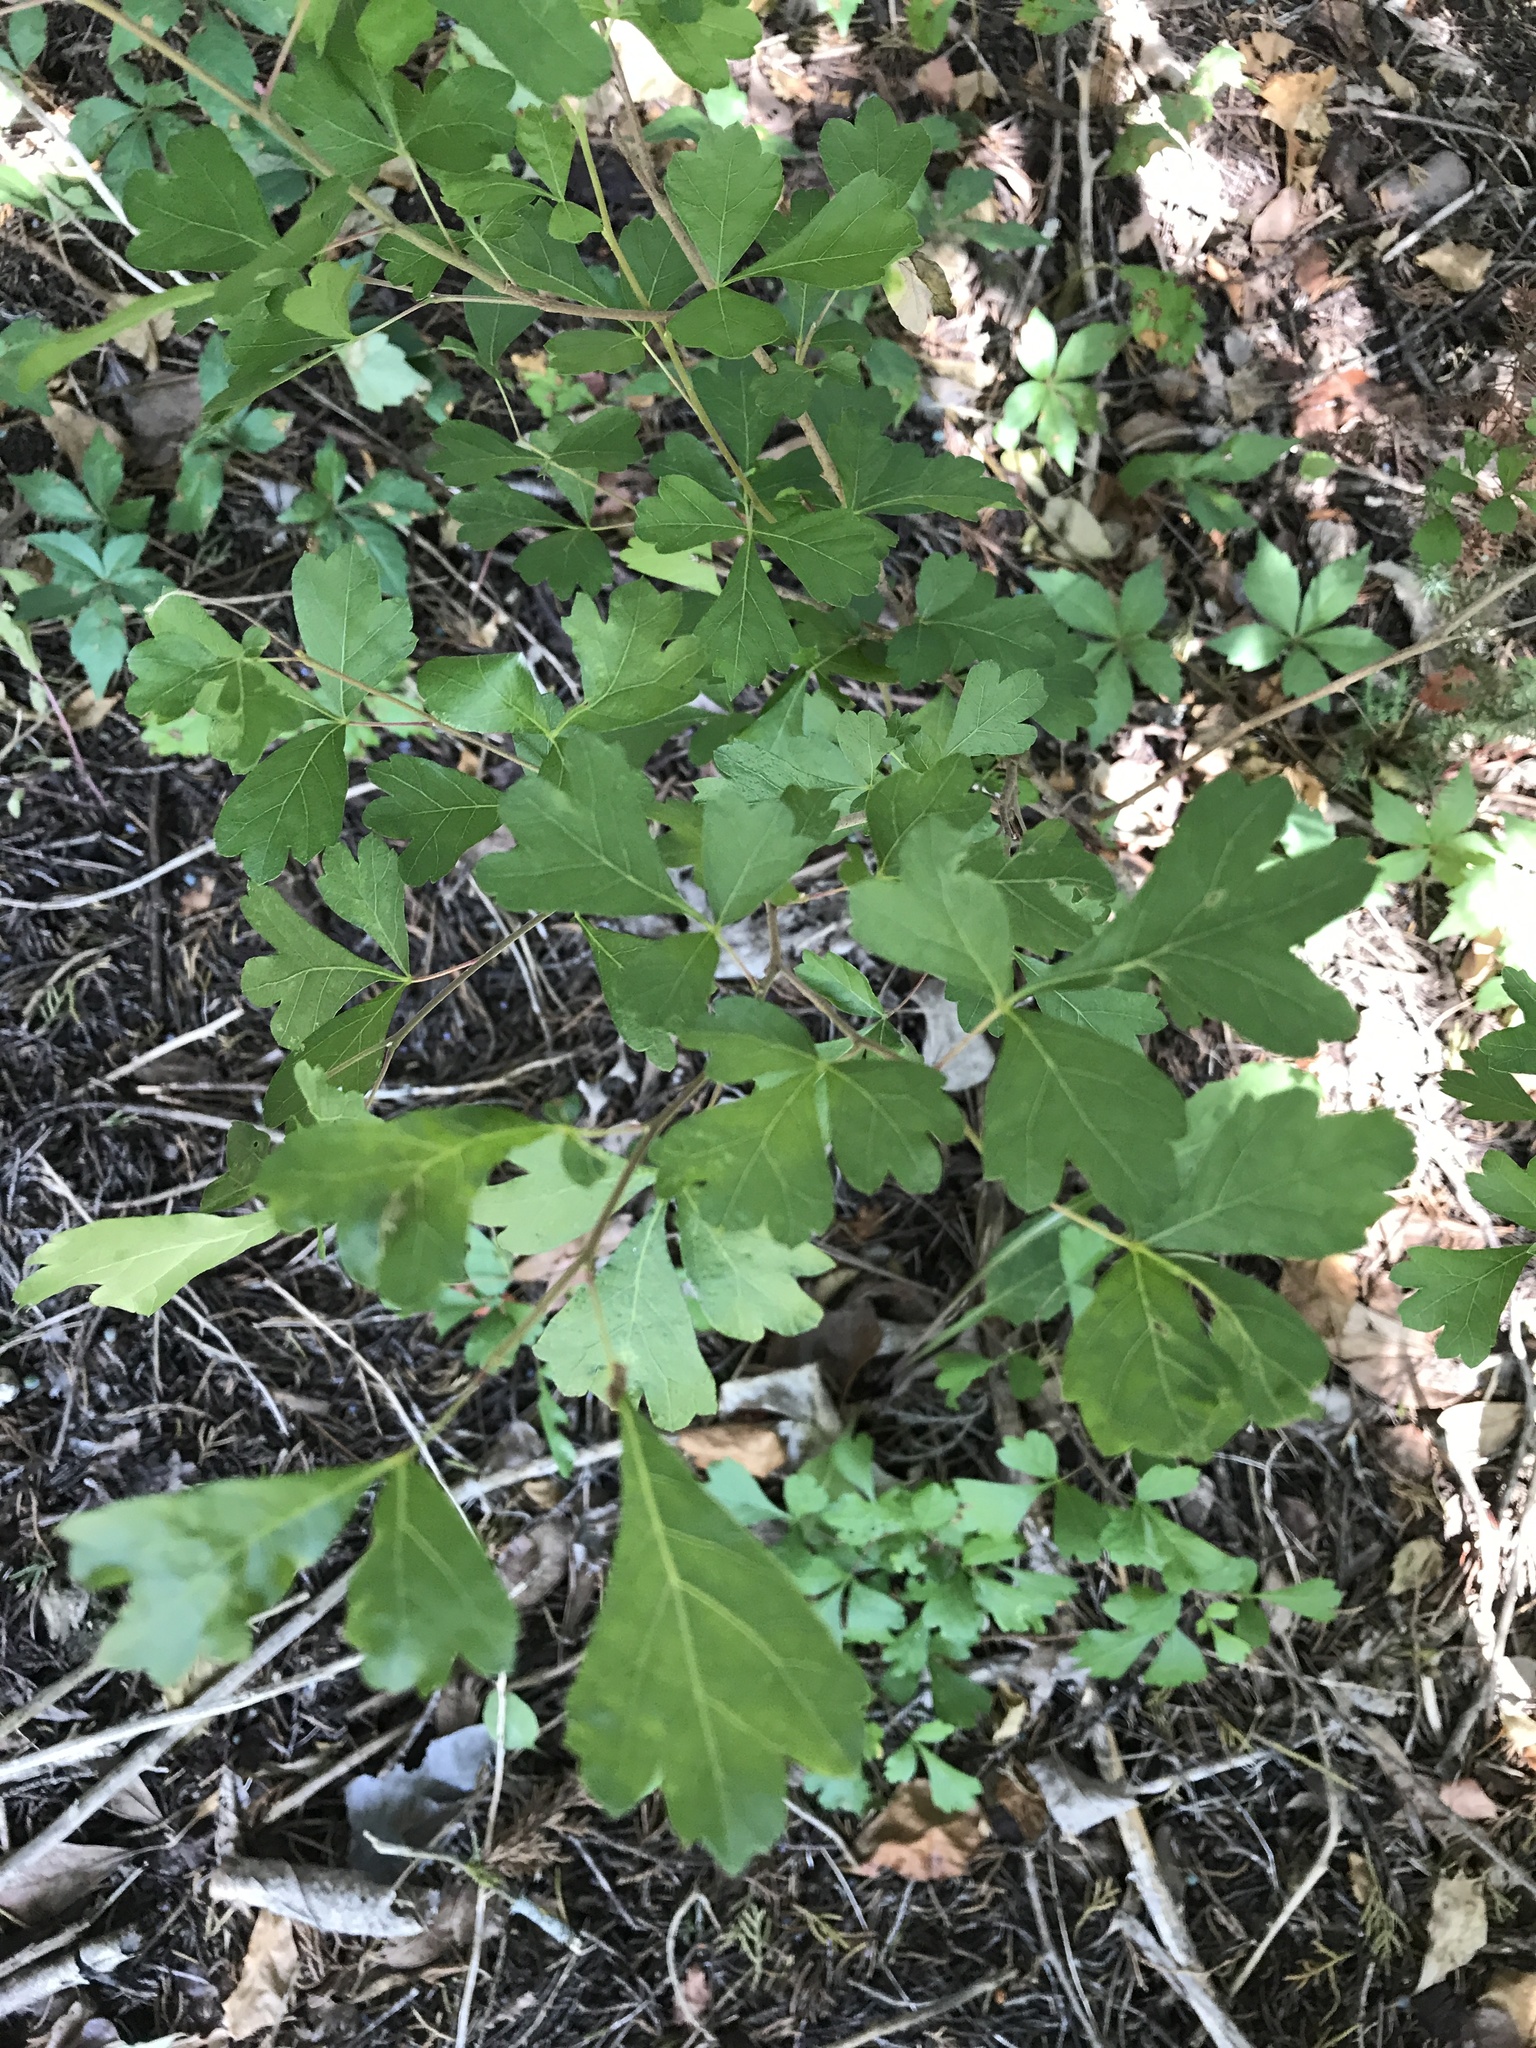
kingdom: Plantae
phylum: Tracheophyta
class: Magnoliopsida
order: Sapindales
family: Anacardiaceae
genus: Rhus
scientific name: Rhus aromatica
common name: Aromatic sumac
